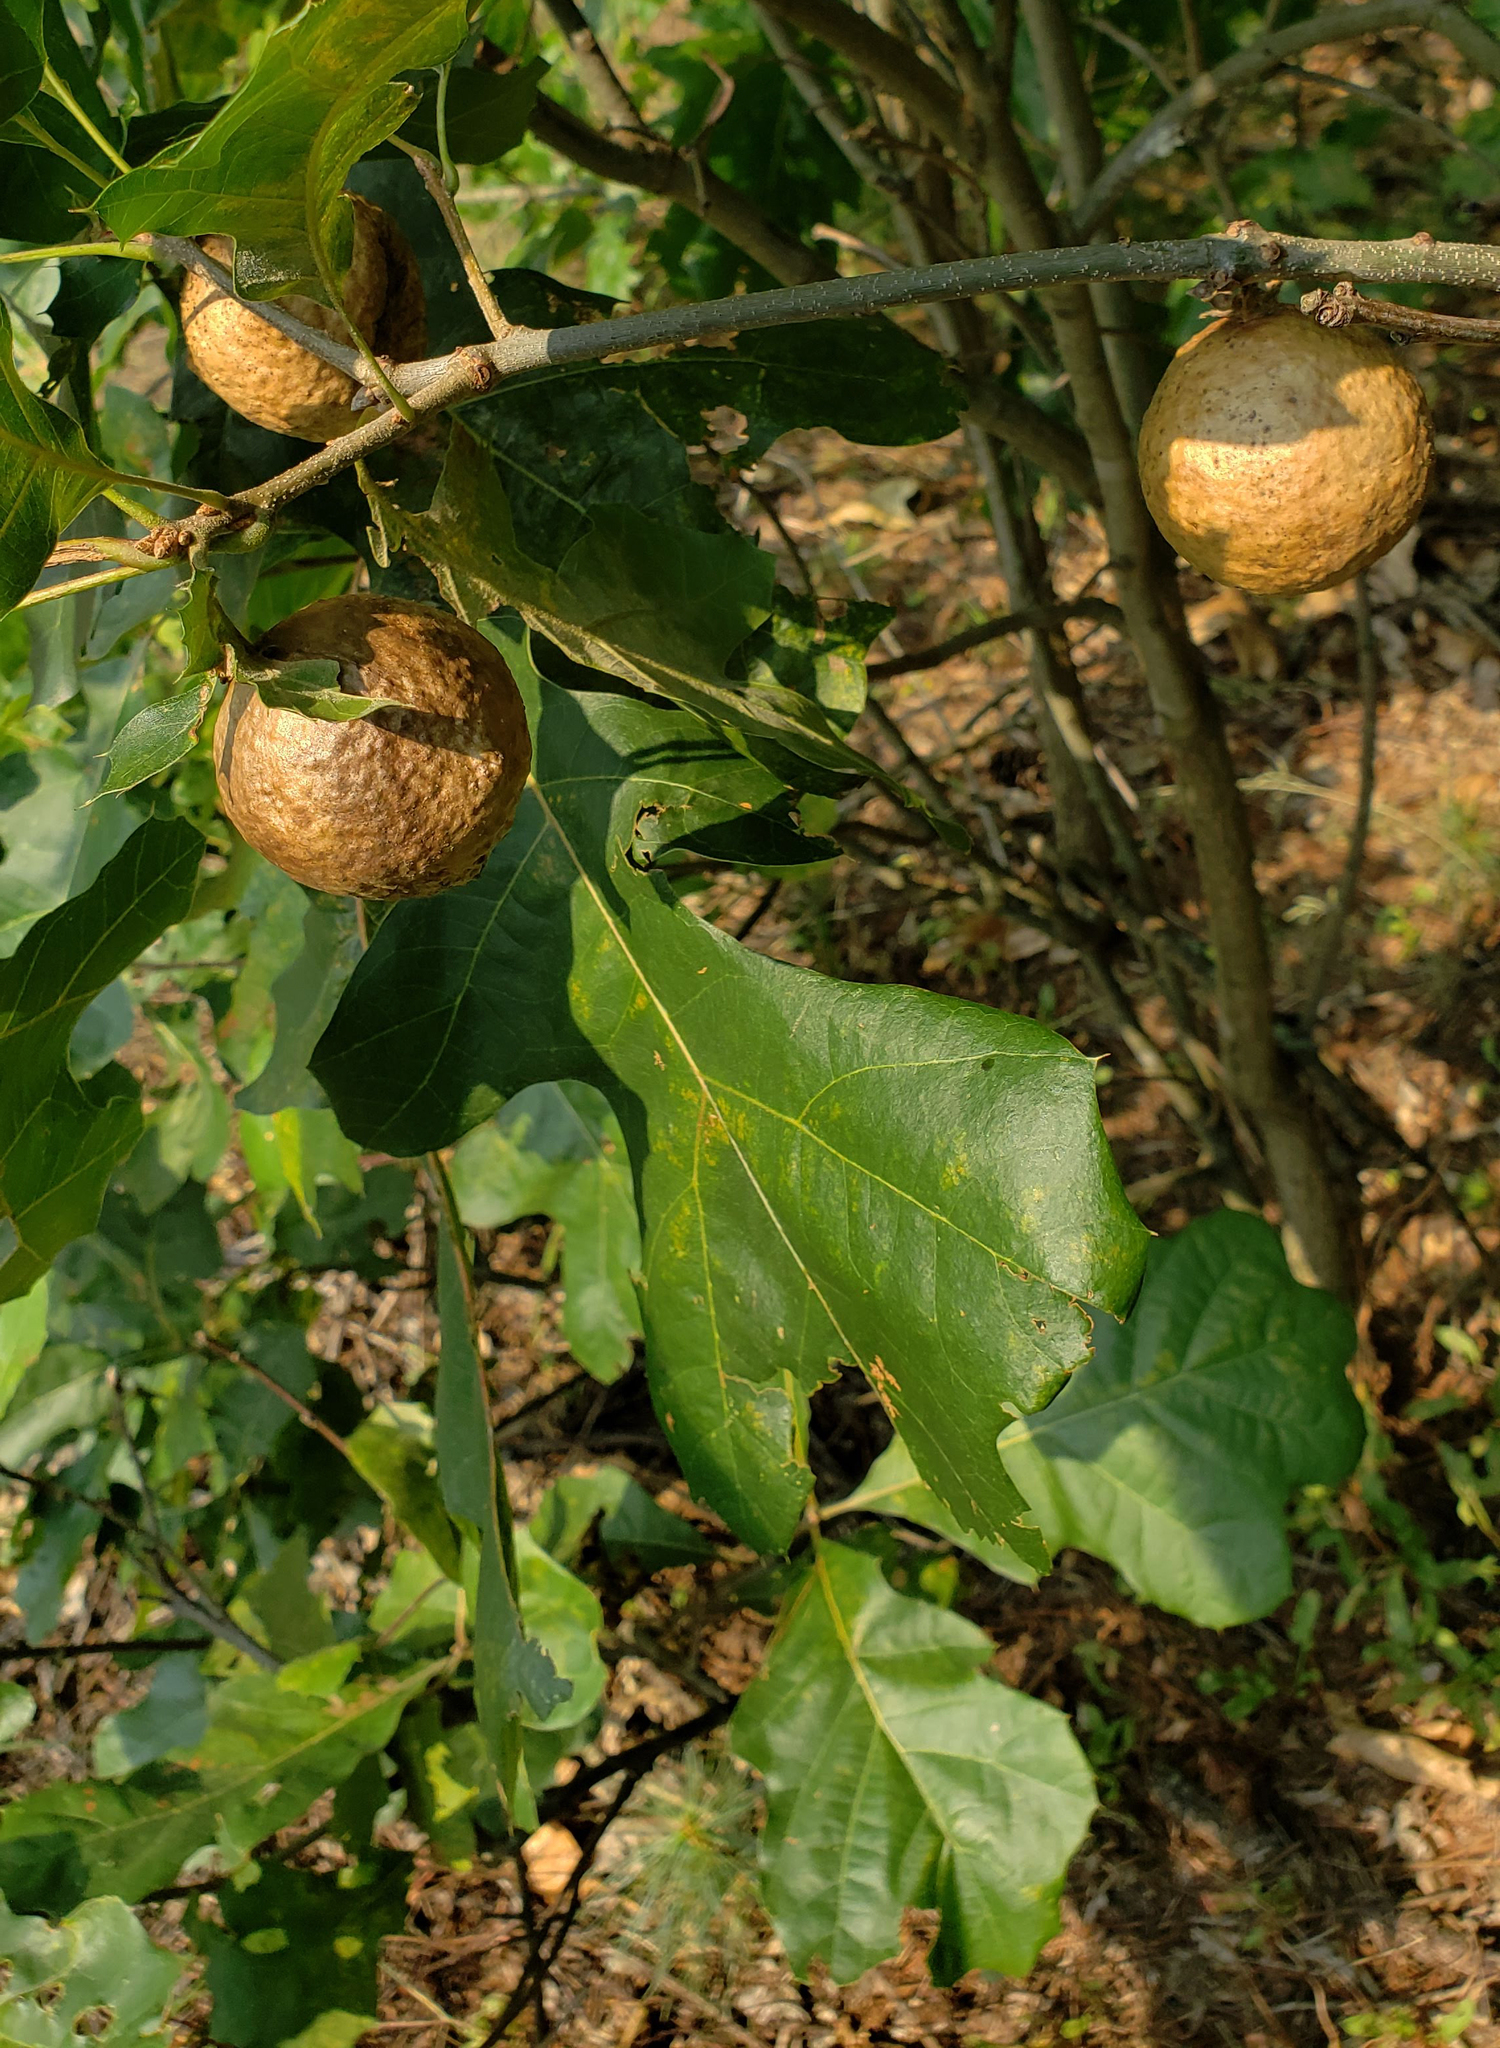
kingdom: Animalia
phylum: Arthropoda
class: Insecta
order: Hymenoptera
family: Cynipidae
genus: Amphibolips
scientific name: Amphibolips
